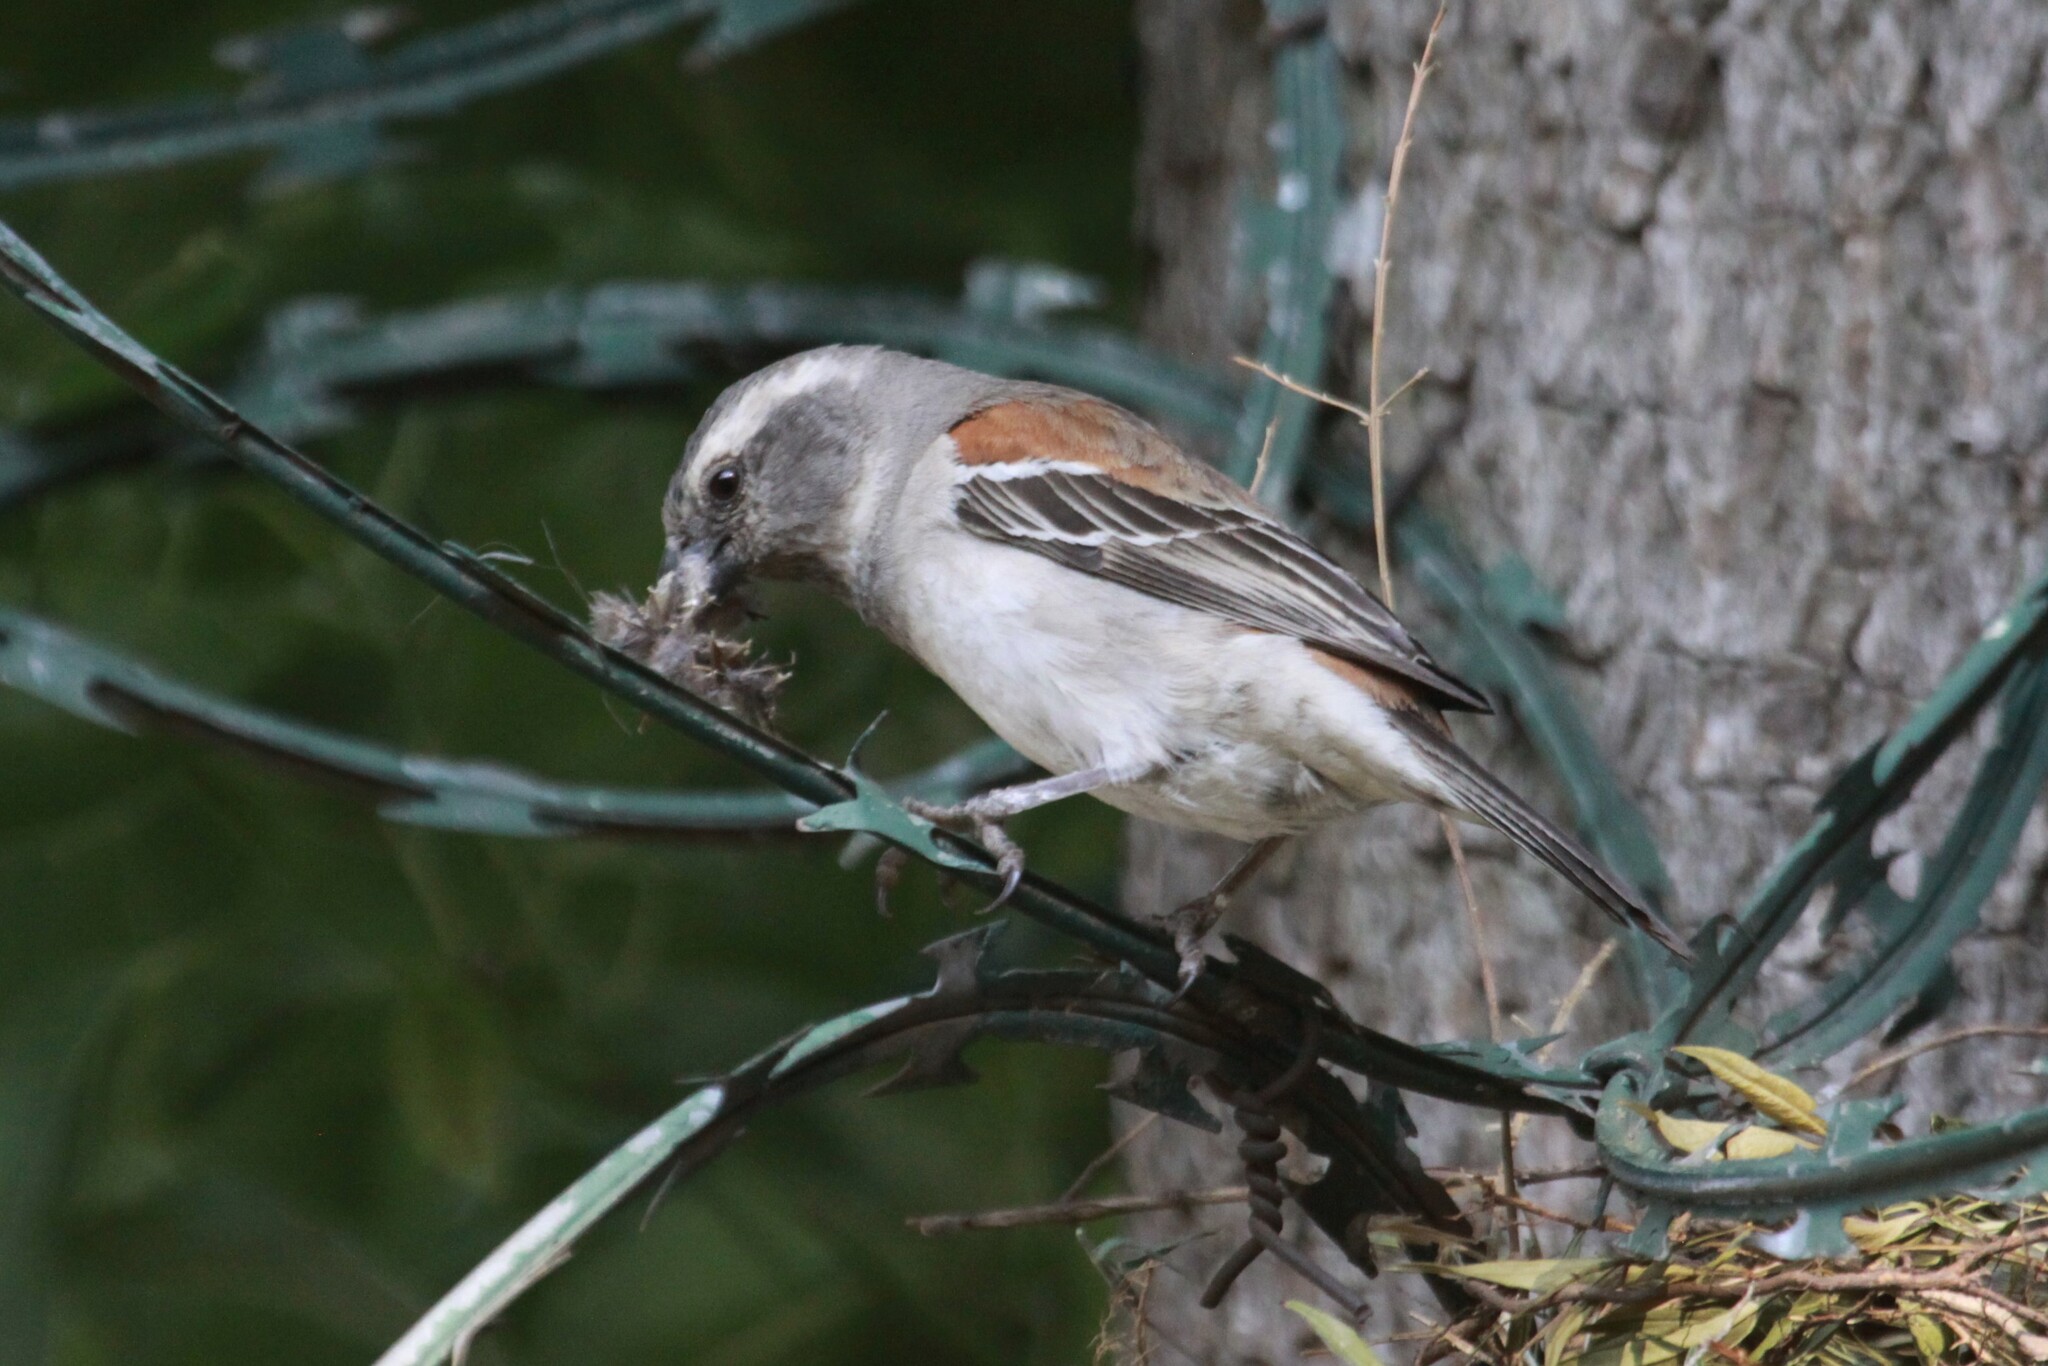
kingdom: Animalia
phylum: Chordata
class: Aves
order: Passeriformes
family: Passeridae
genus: Passer
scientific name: Passer melanurus
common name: Cape sparrow
